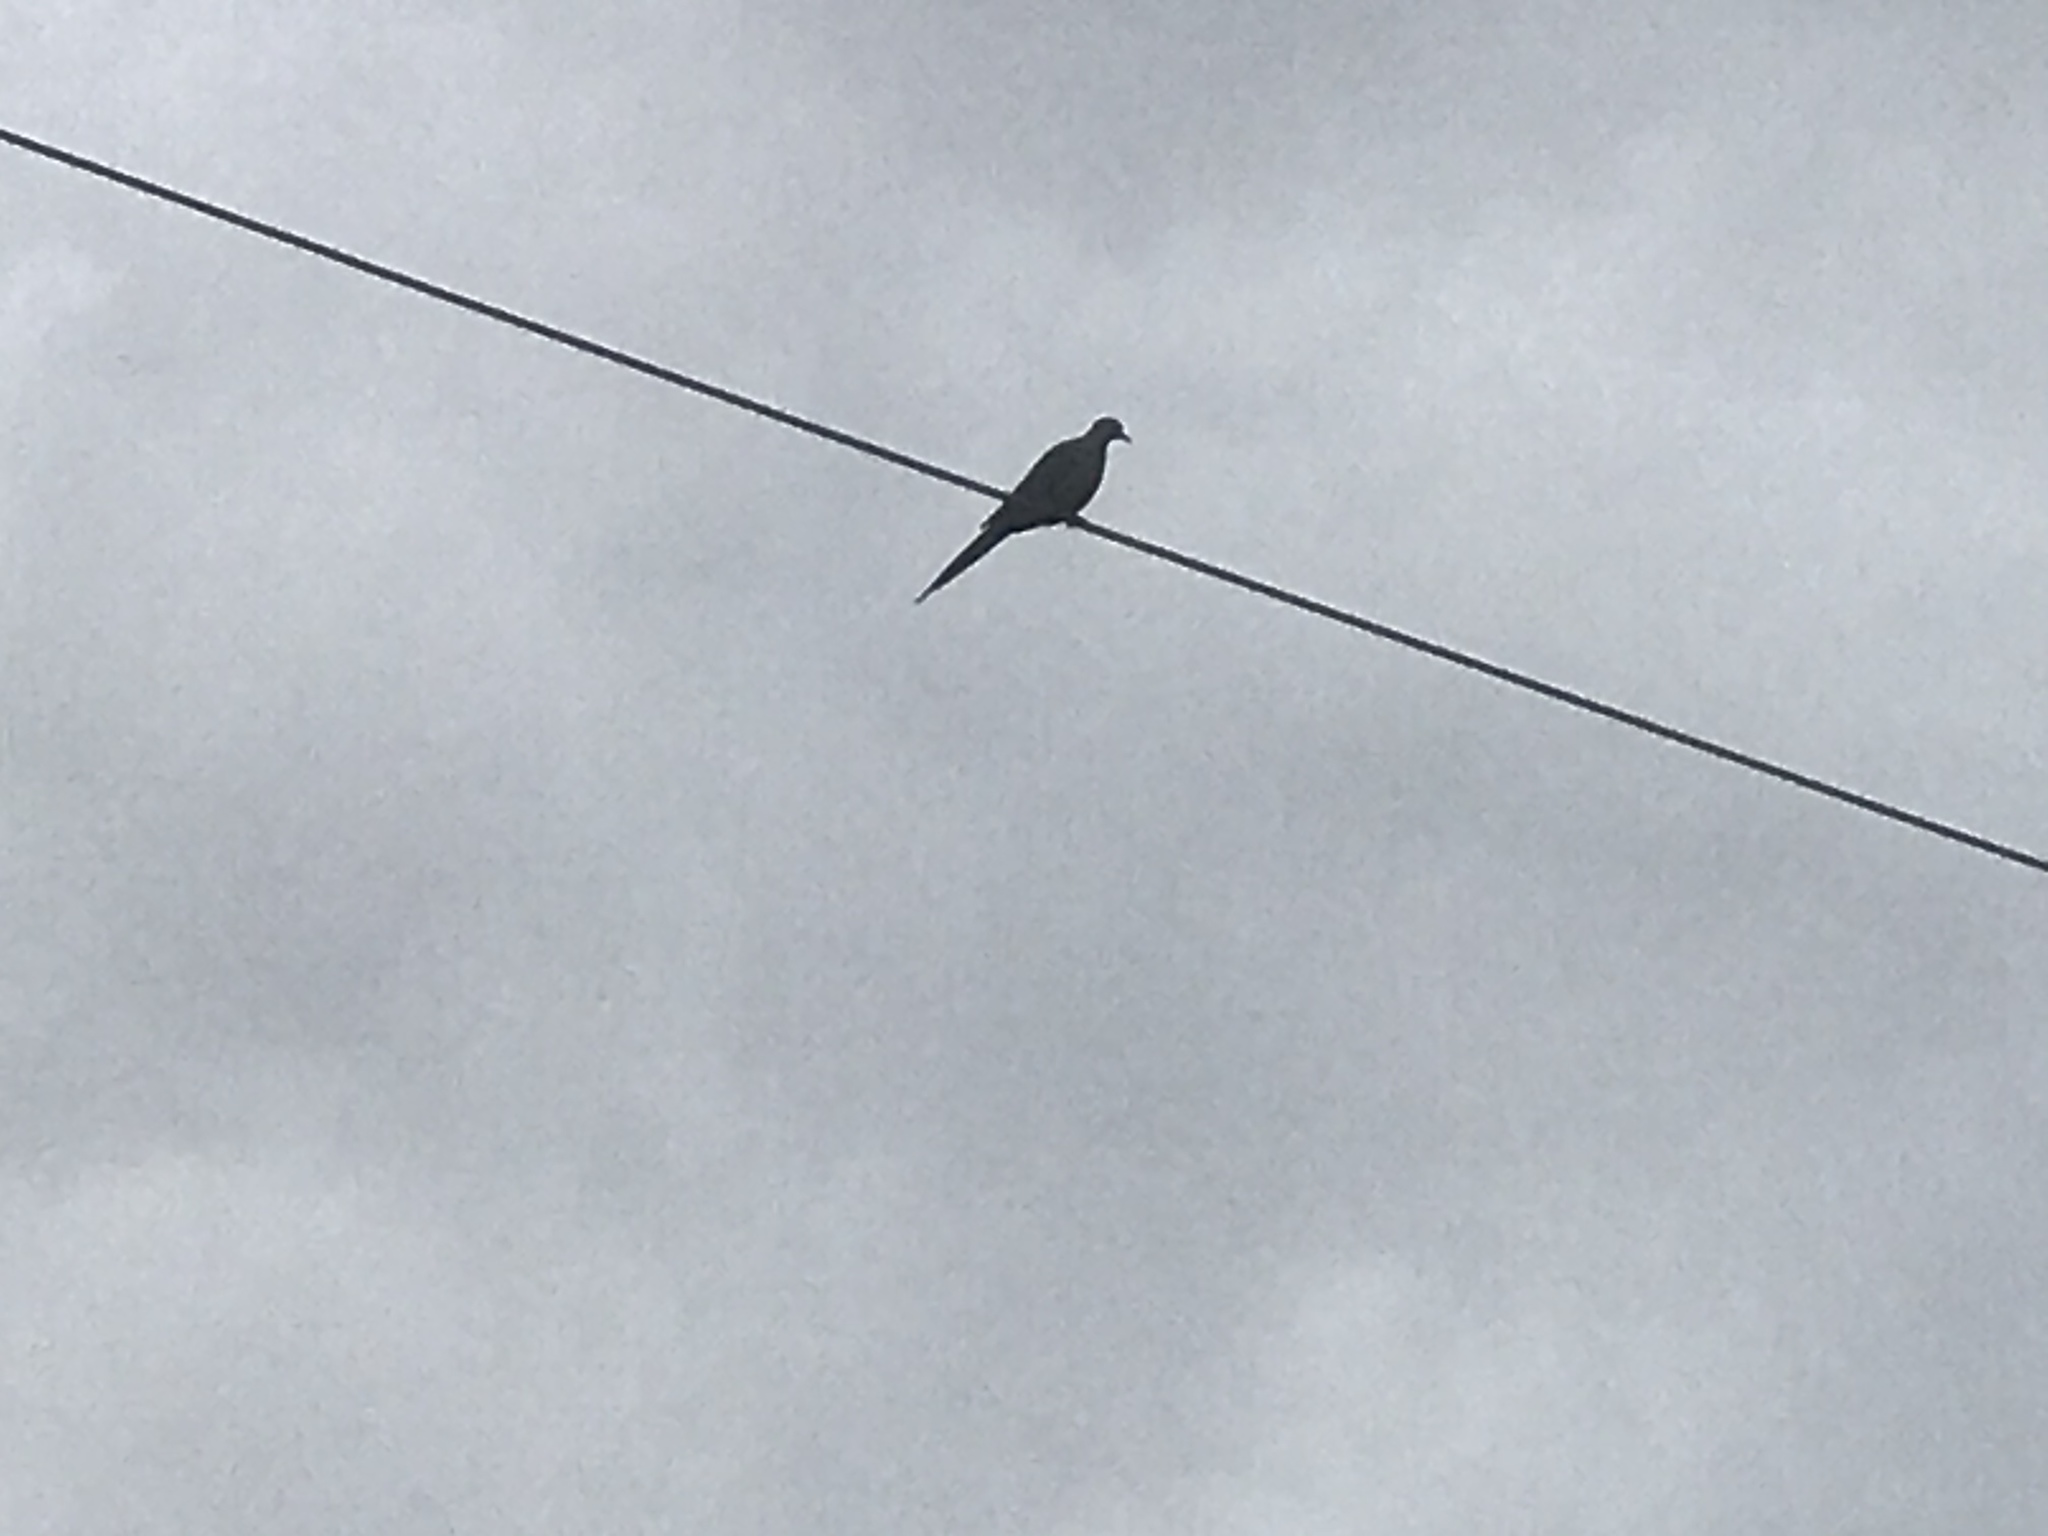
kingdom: Animalia
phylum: Chordata
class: Aves
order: Columbiformes
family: Columbidae
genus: Zenaida
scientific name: Zenaida macroura
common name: Mourning dove
